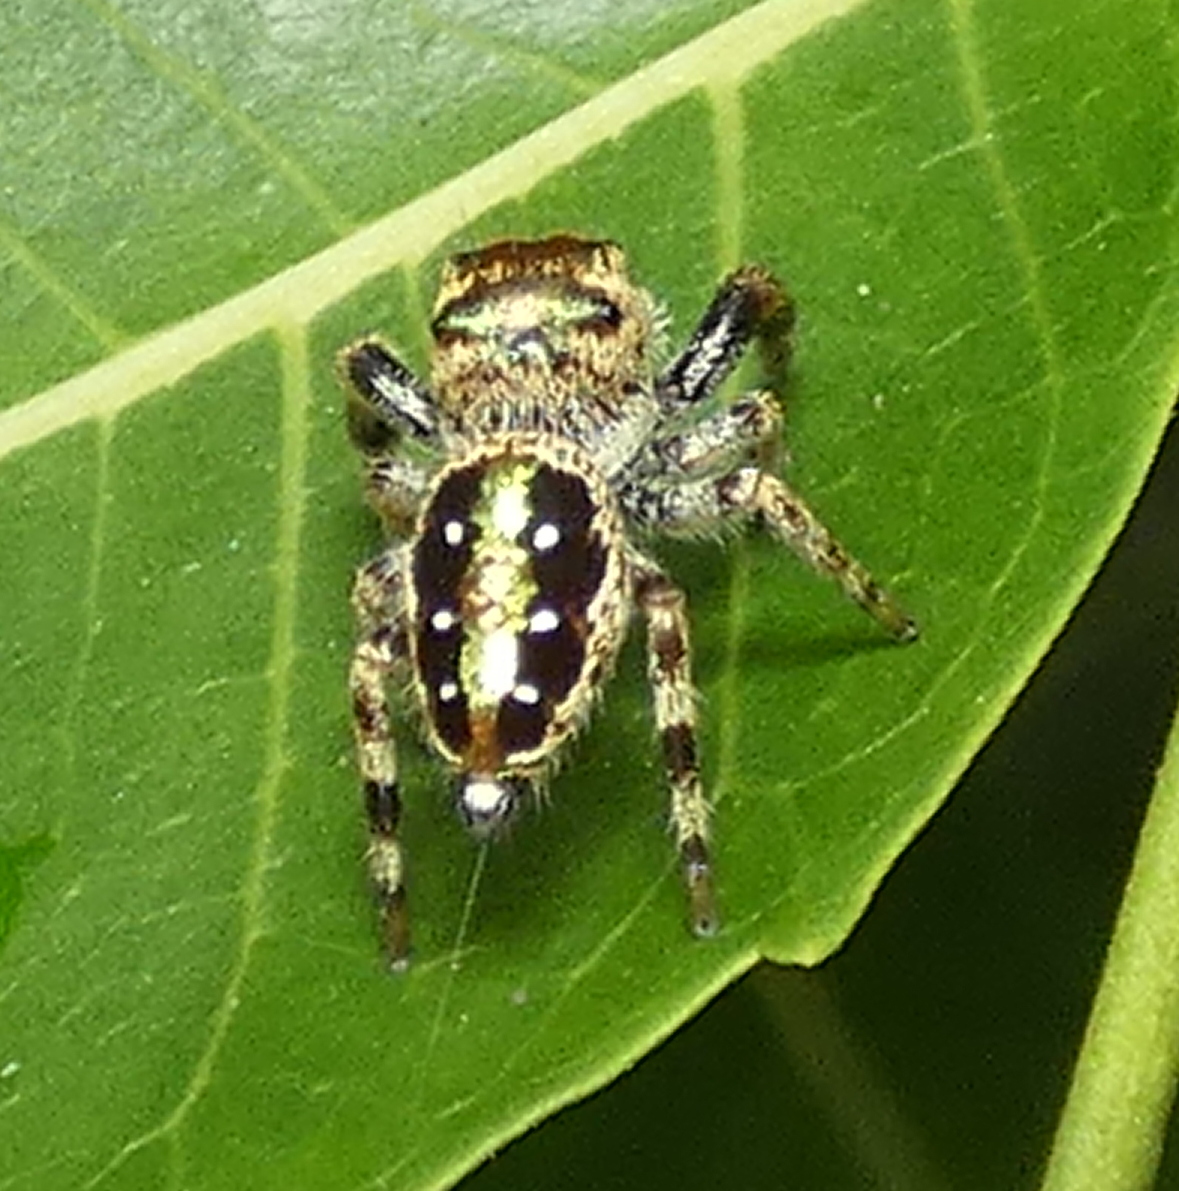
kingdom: Animalia
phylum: Arthropoda
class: Arachnida
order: Araneae
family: Salticidae
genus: Parnaenus
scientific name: Parnaenus cyanidens
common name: Jumping spiders
